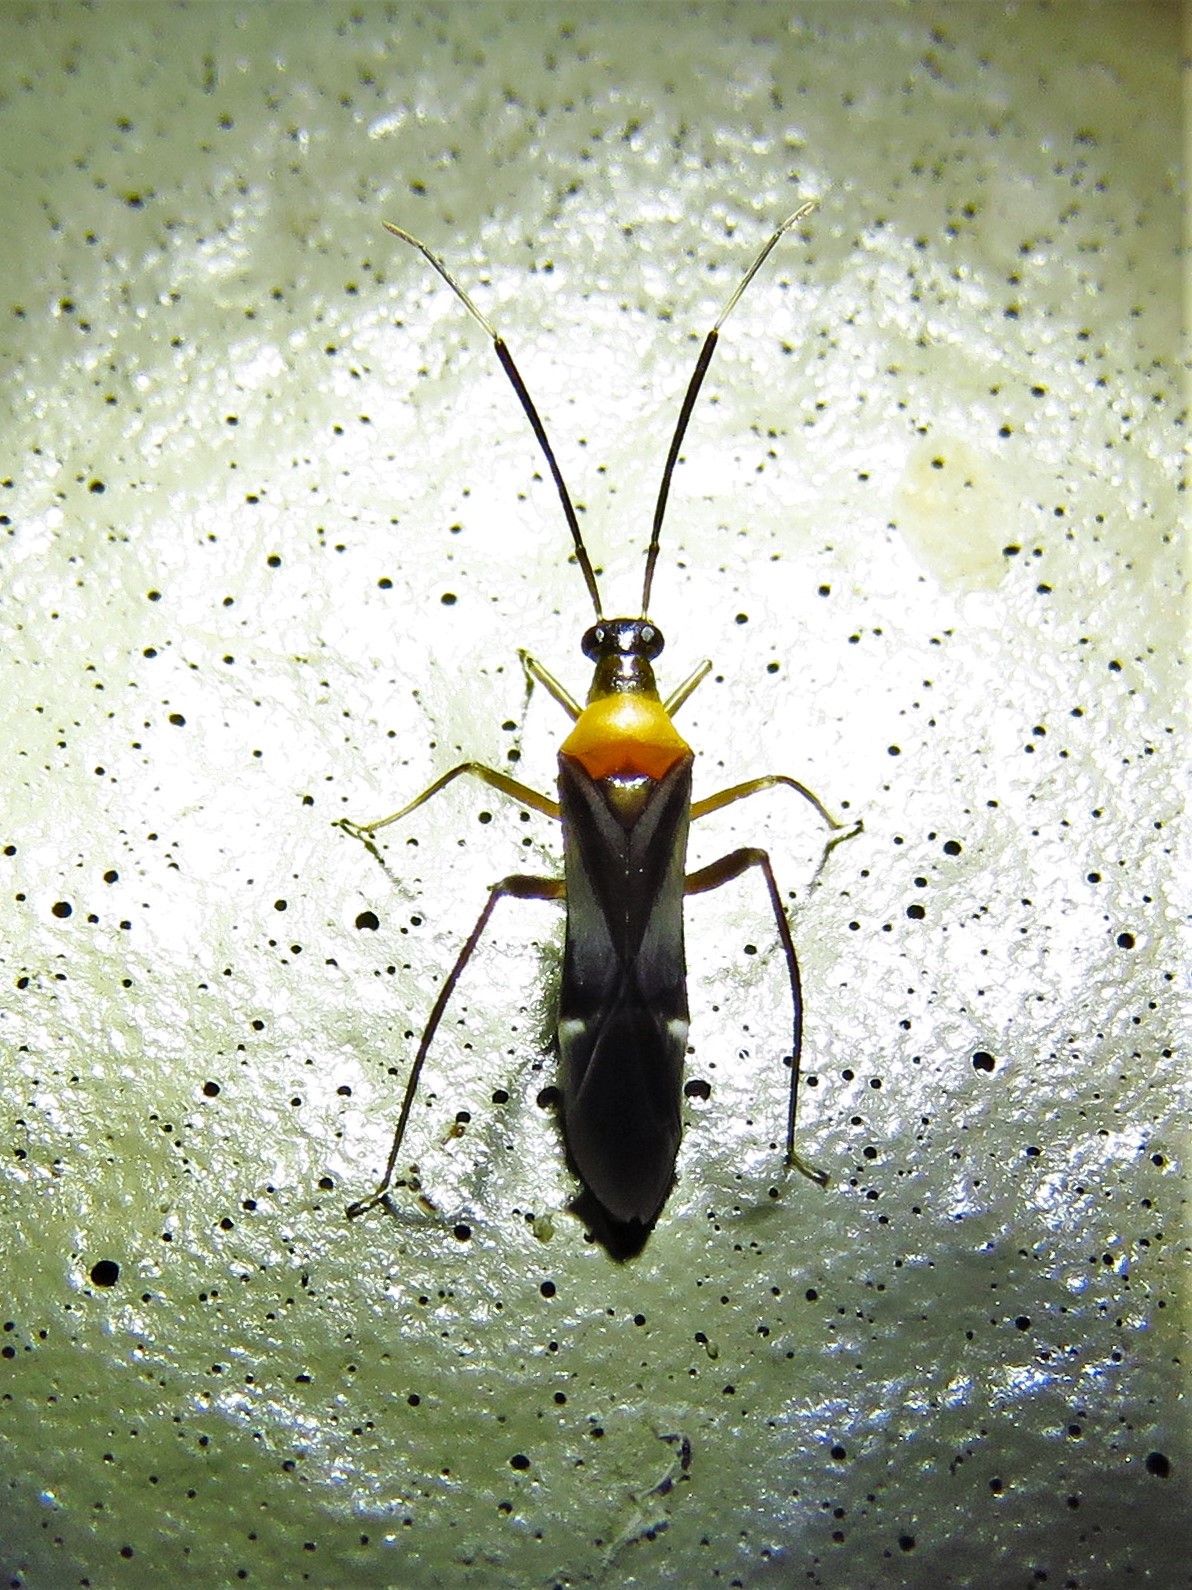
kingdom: Animalia
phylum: Arthropoda
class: Insecta
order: Hemiptera
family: Miridae
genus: Pseudoxenetus
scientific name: Pseudoxenetus regalis
